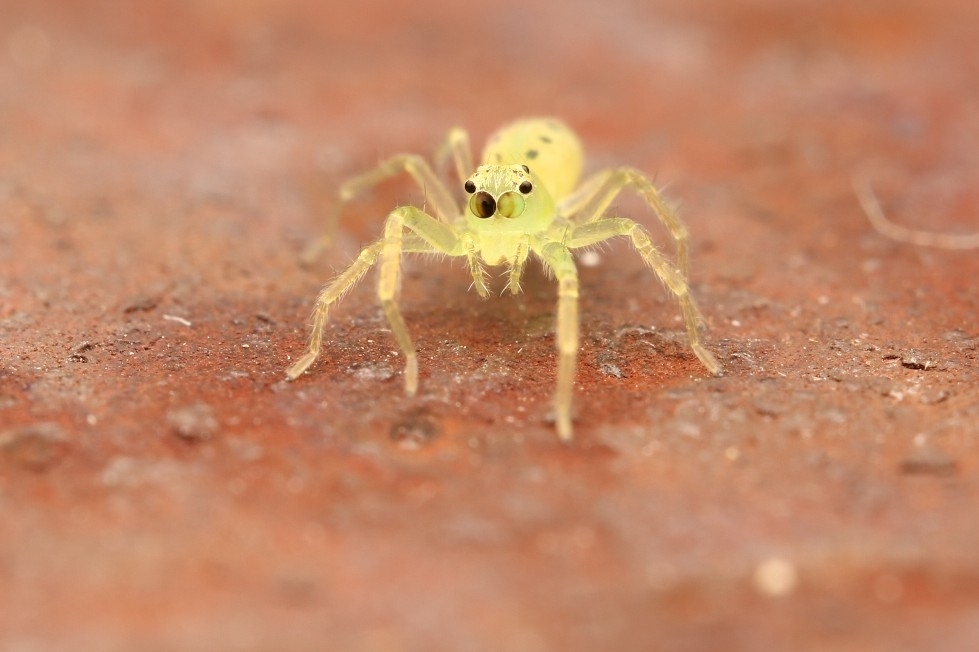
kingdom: Animalia
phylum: Arthropoda
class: Arachnida
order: Araneae
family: Salticidae
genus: Lyssomanes
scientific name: Lyssomanes viridis
